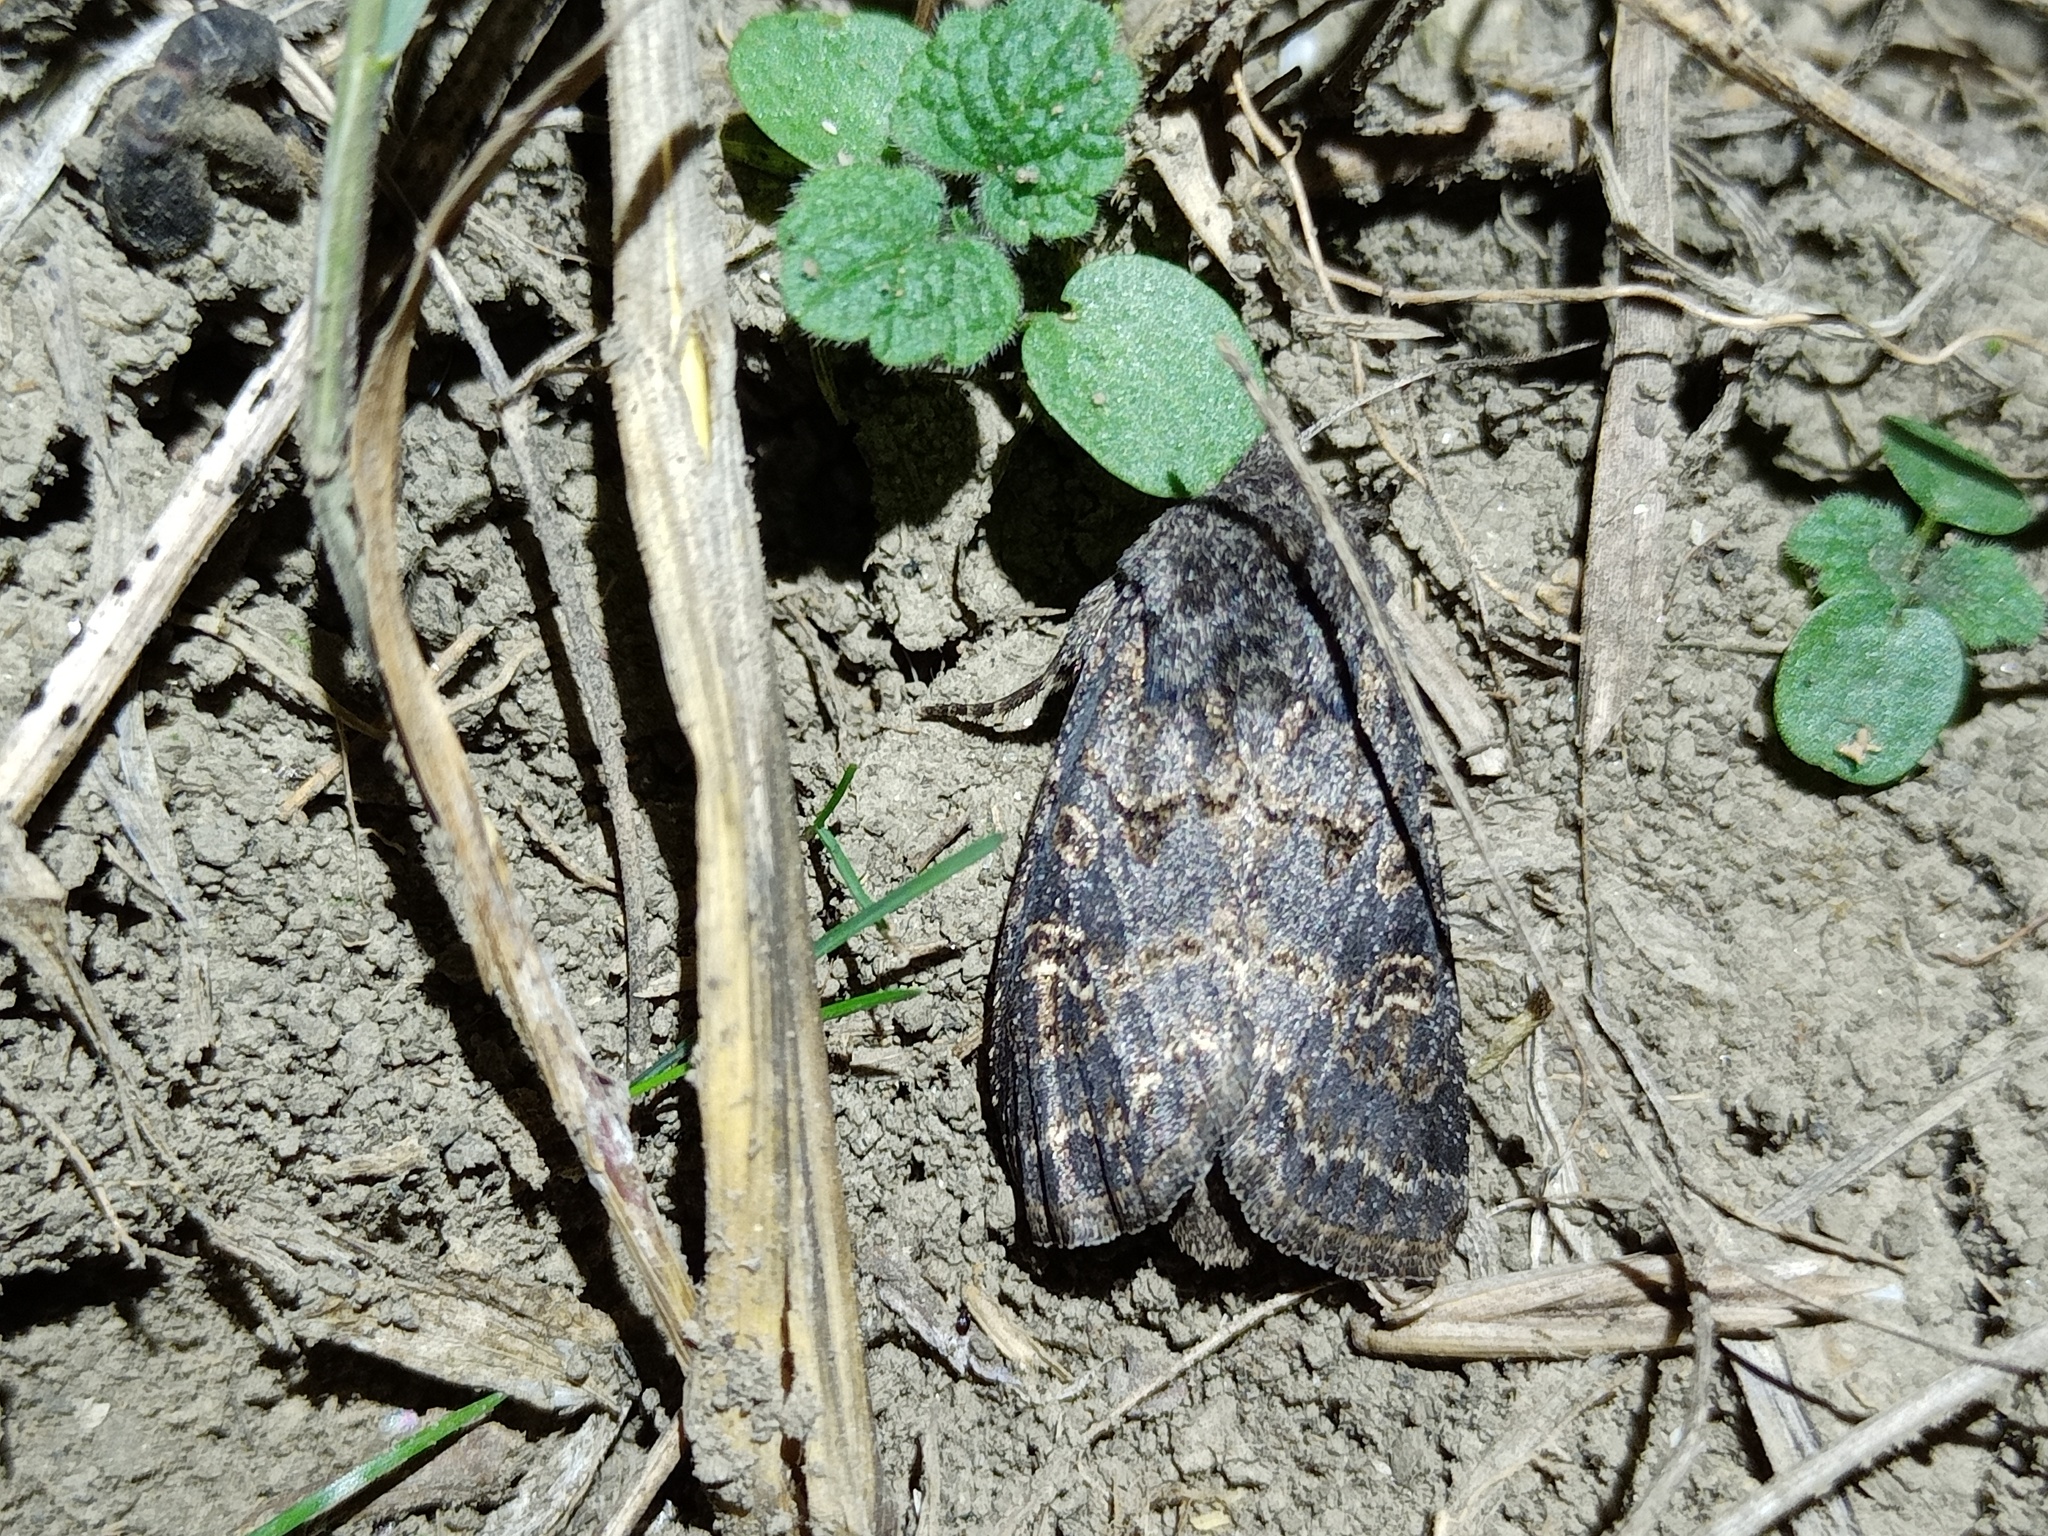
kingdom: Animalia
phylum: Arthropoda
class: Insecta
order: Lepidoptera
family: Noctuidae
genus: Tholera
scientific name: Tholera cespitis
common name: Hedge rustic
